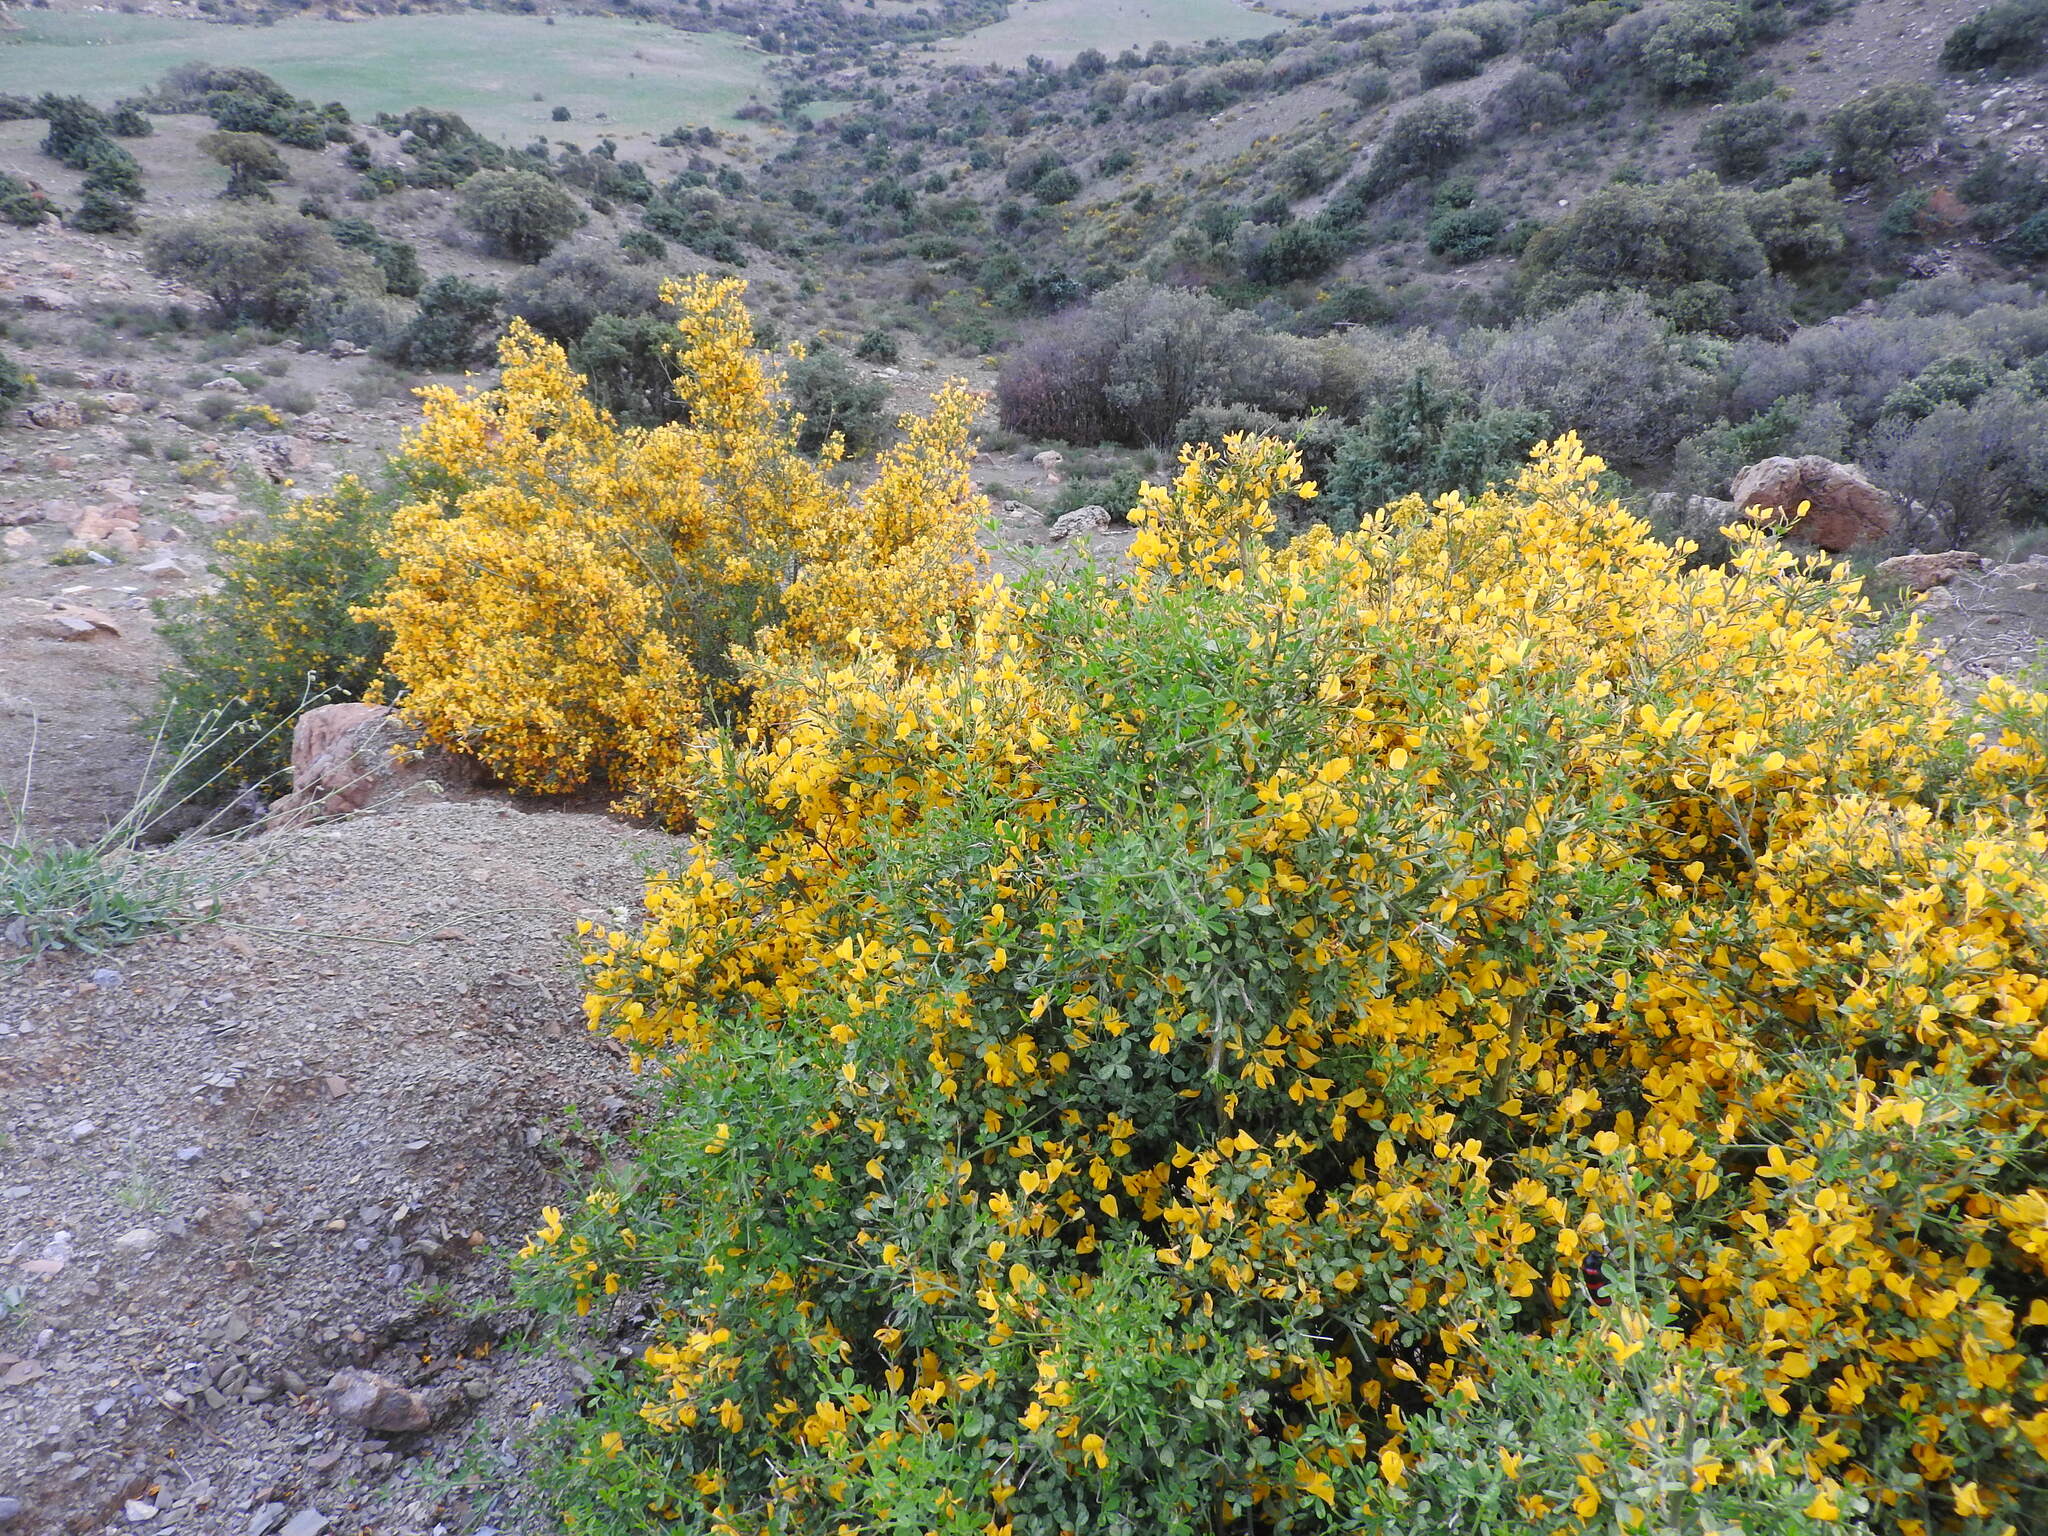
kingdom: Plantae
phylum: Tracheophyta
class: Magnoliopsida
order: Fabales
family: Fabaceae
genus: Calicotome
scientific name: Calicotome spinosa
